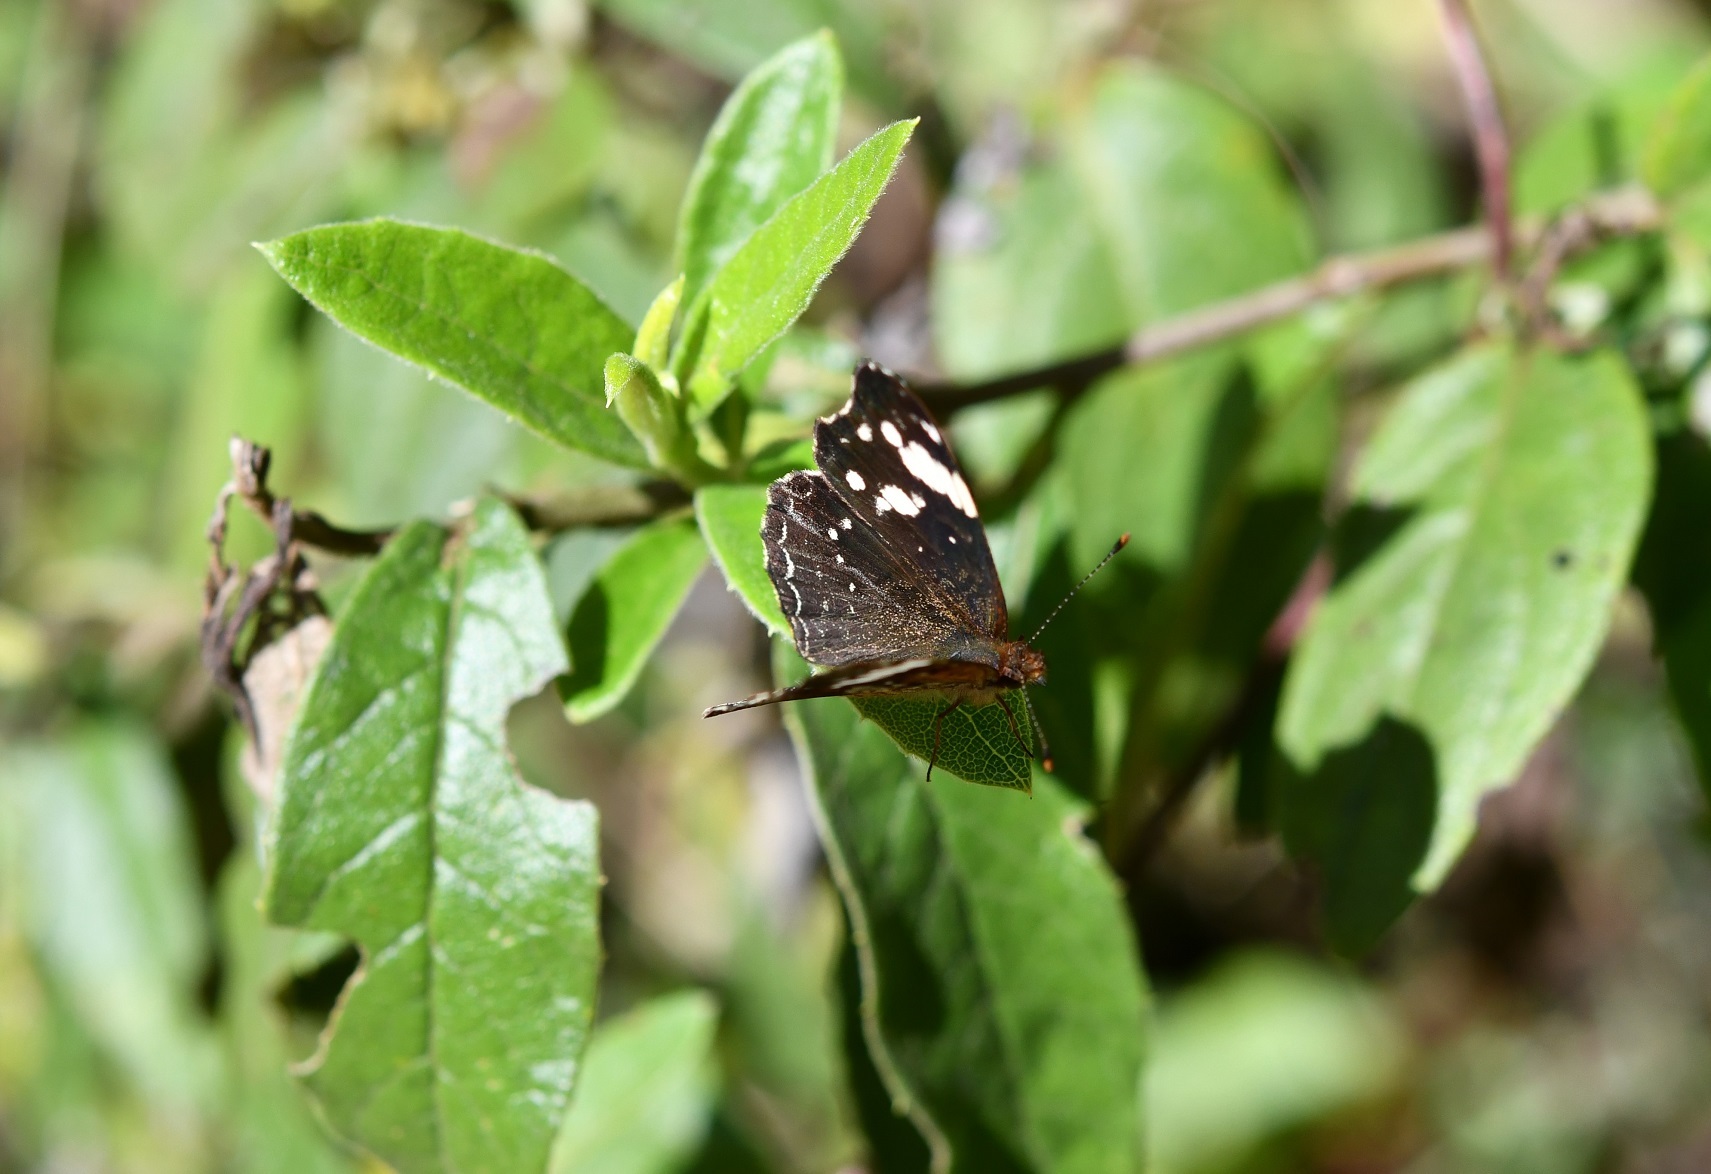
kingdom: Animalia
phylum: Arthropoda
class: Insecta
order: Lepidoptera
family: Nymphalidae
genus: Anthanassa
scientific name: Anthanassa sitalces
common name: Montane crescent
